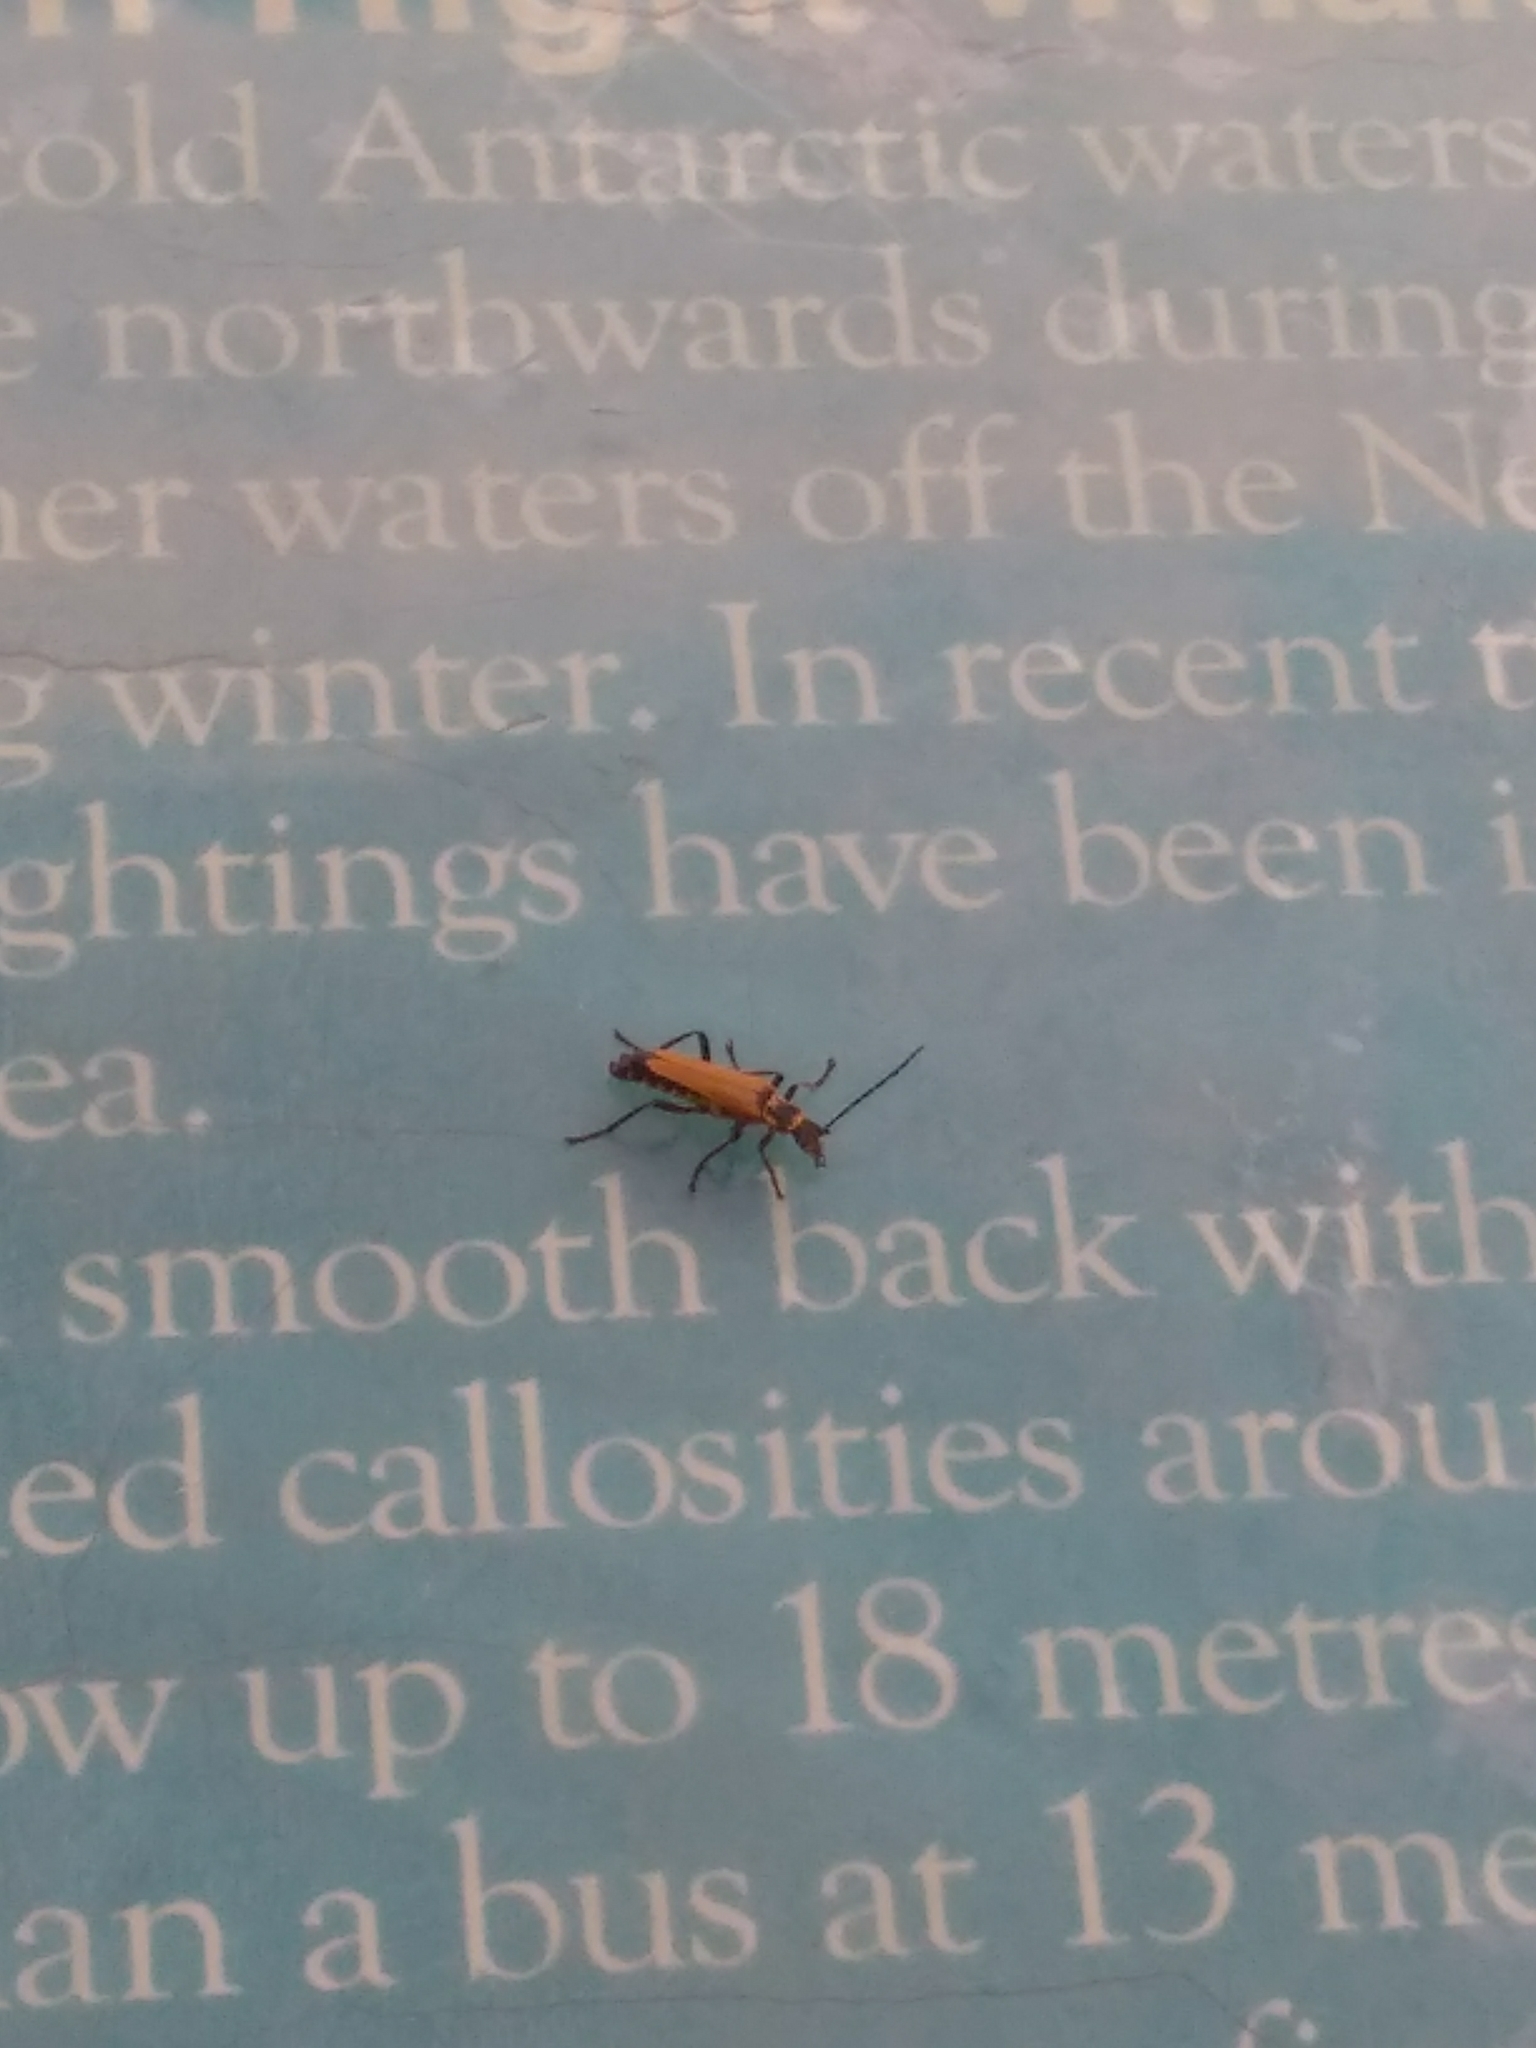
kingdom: Animalia
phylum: Arthropoda
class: Insecta
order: Coleoptera
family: Cantharidae
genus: Chauliognathus
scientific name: Chauliognathus
